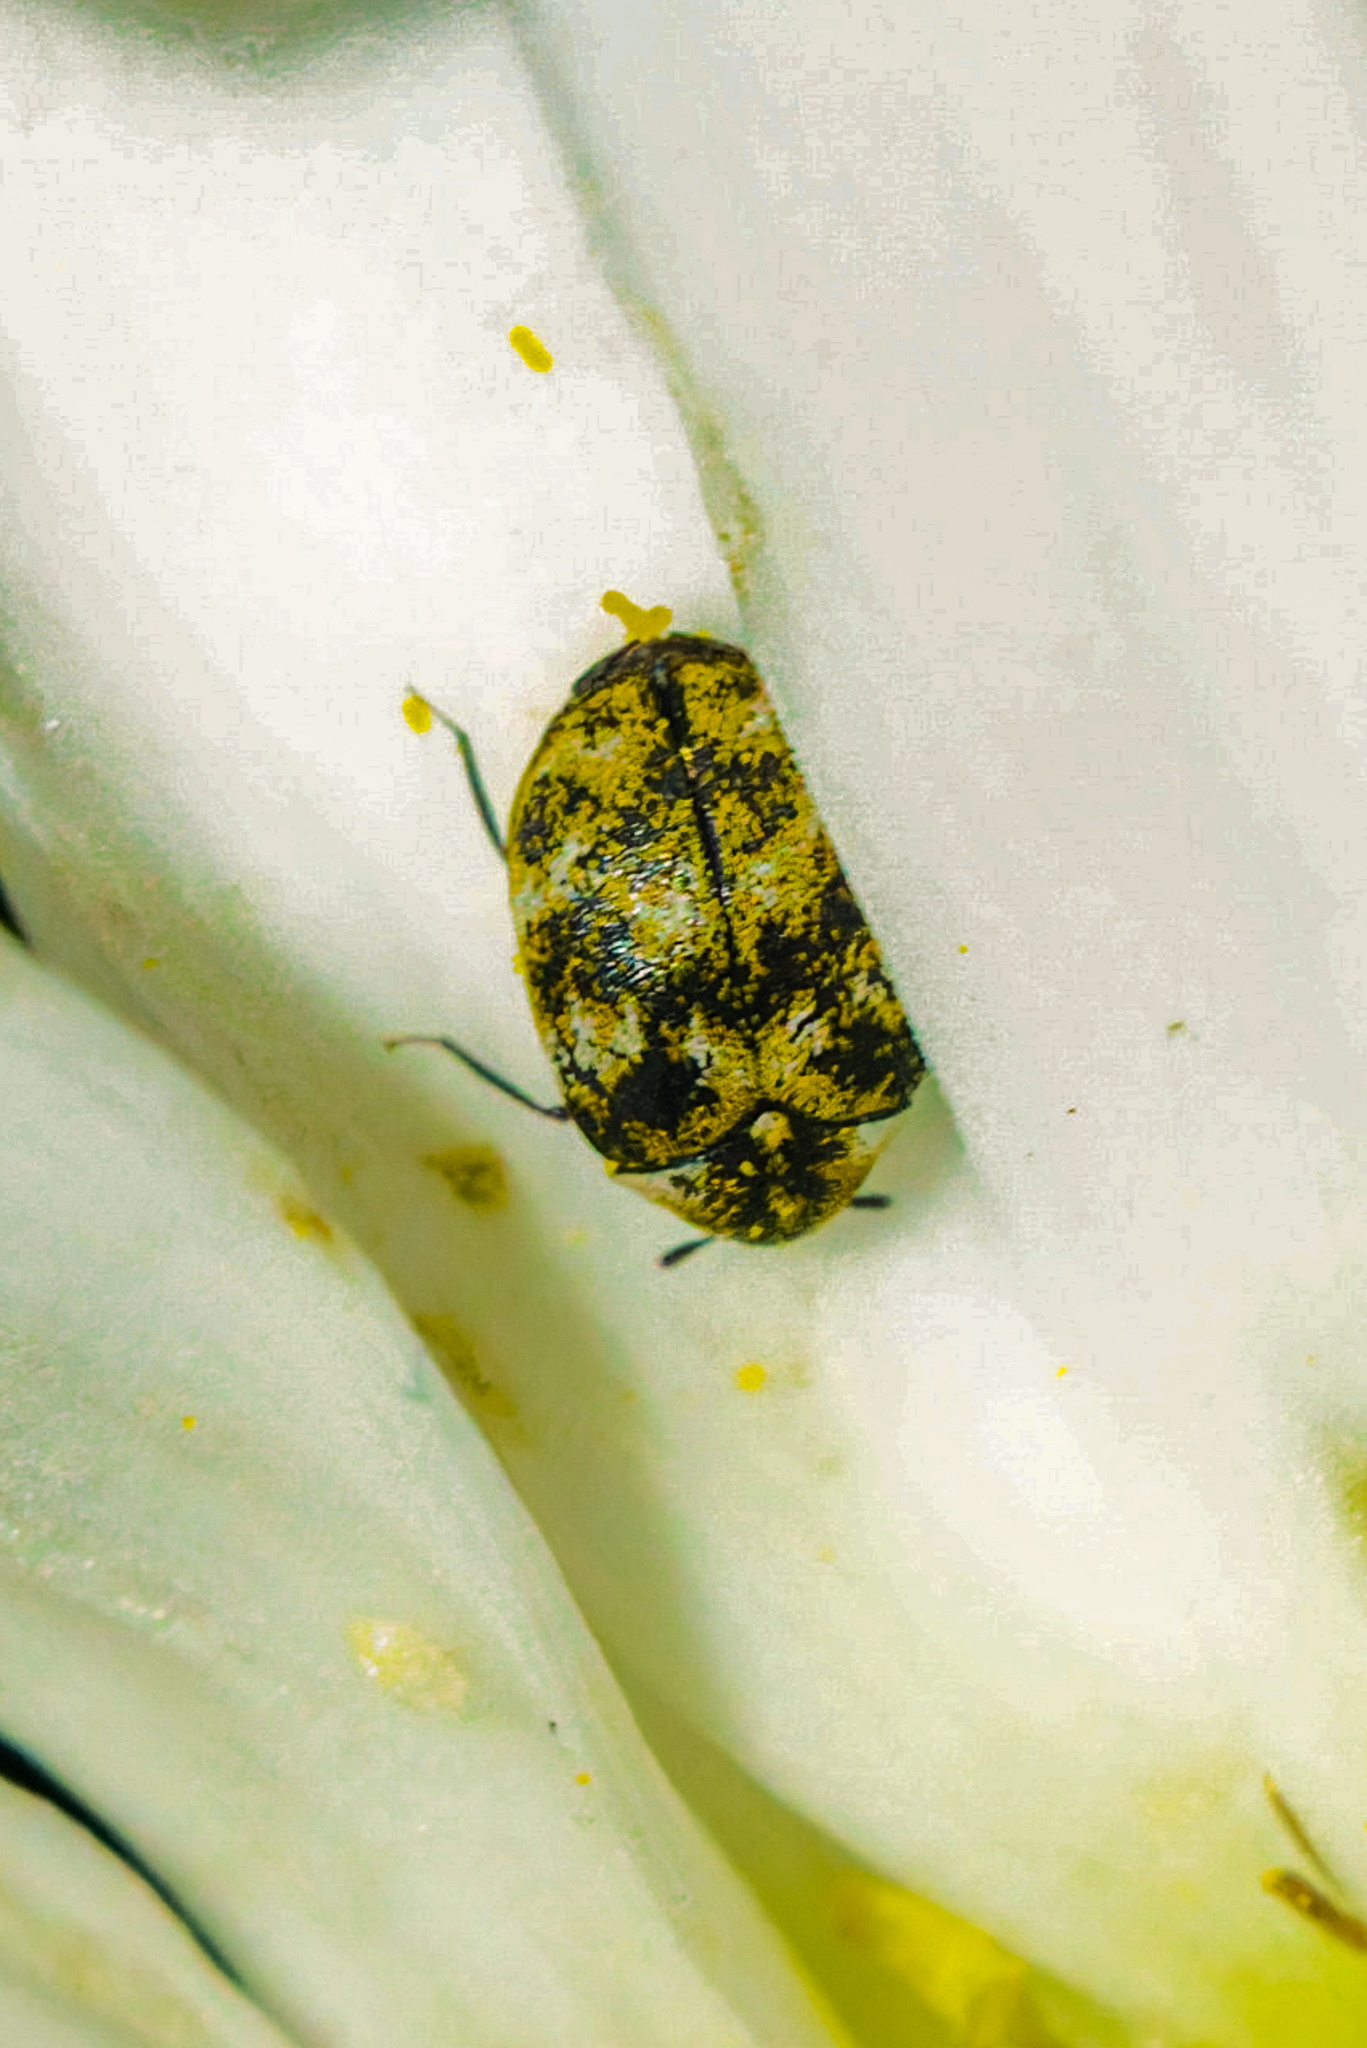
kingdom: Animalia
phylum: Arthropoda
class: Insecta
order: Coleoptera
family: Dermestidae
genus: Anthrenus
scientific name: Anthrenus verbasci
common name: Varied carpet beetle
